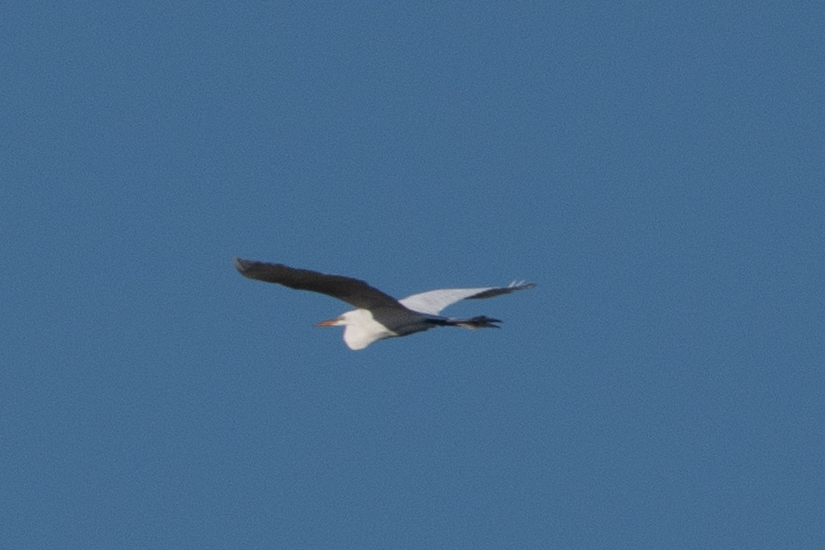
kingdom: Animalia
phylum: Chordata
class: Aves
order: Pelecaniformes
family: Ardeidae
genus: Ardea
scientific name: Ardea alba
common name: Great egret
